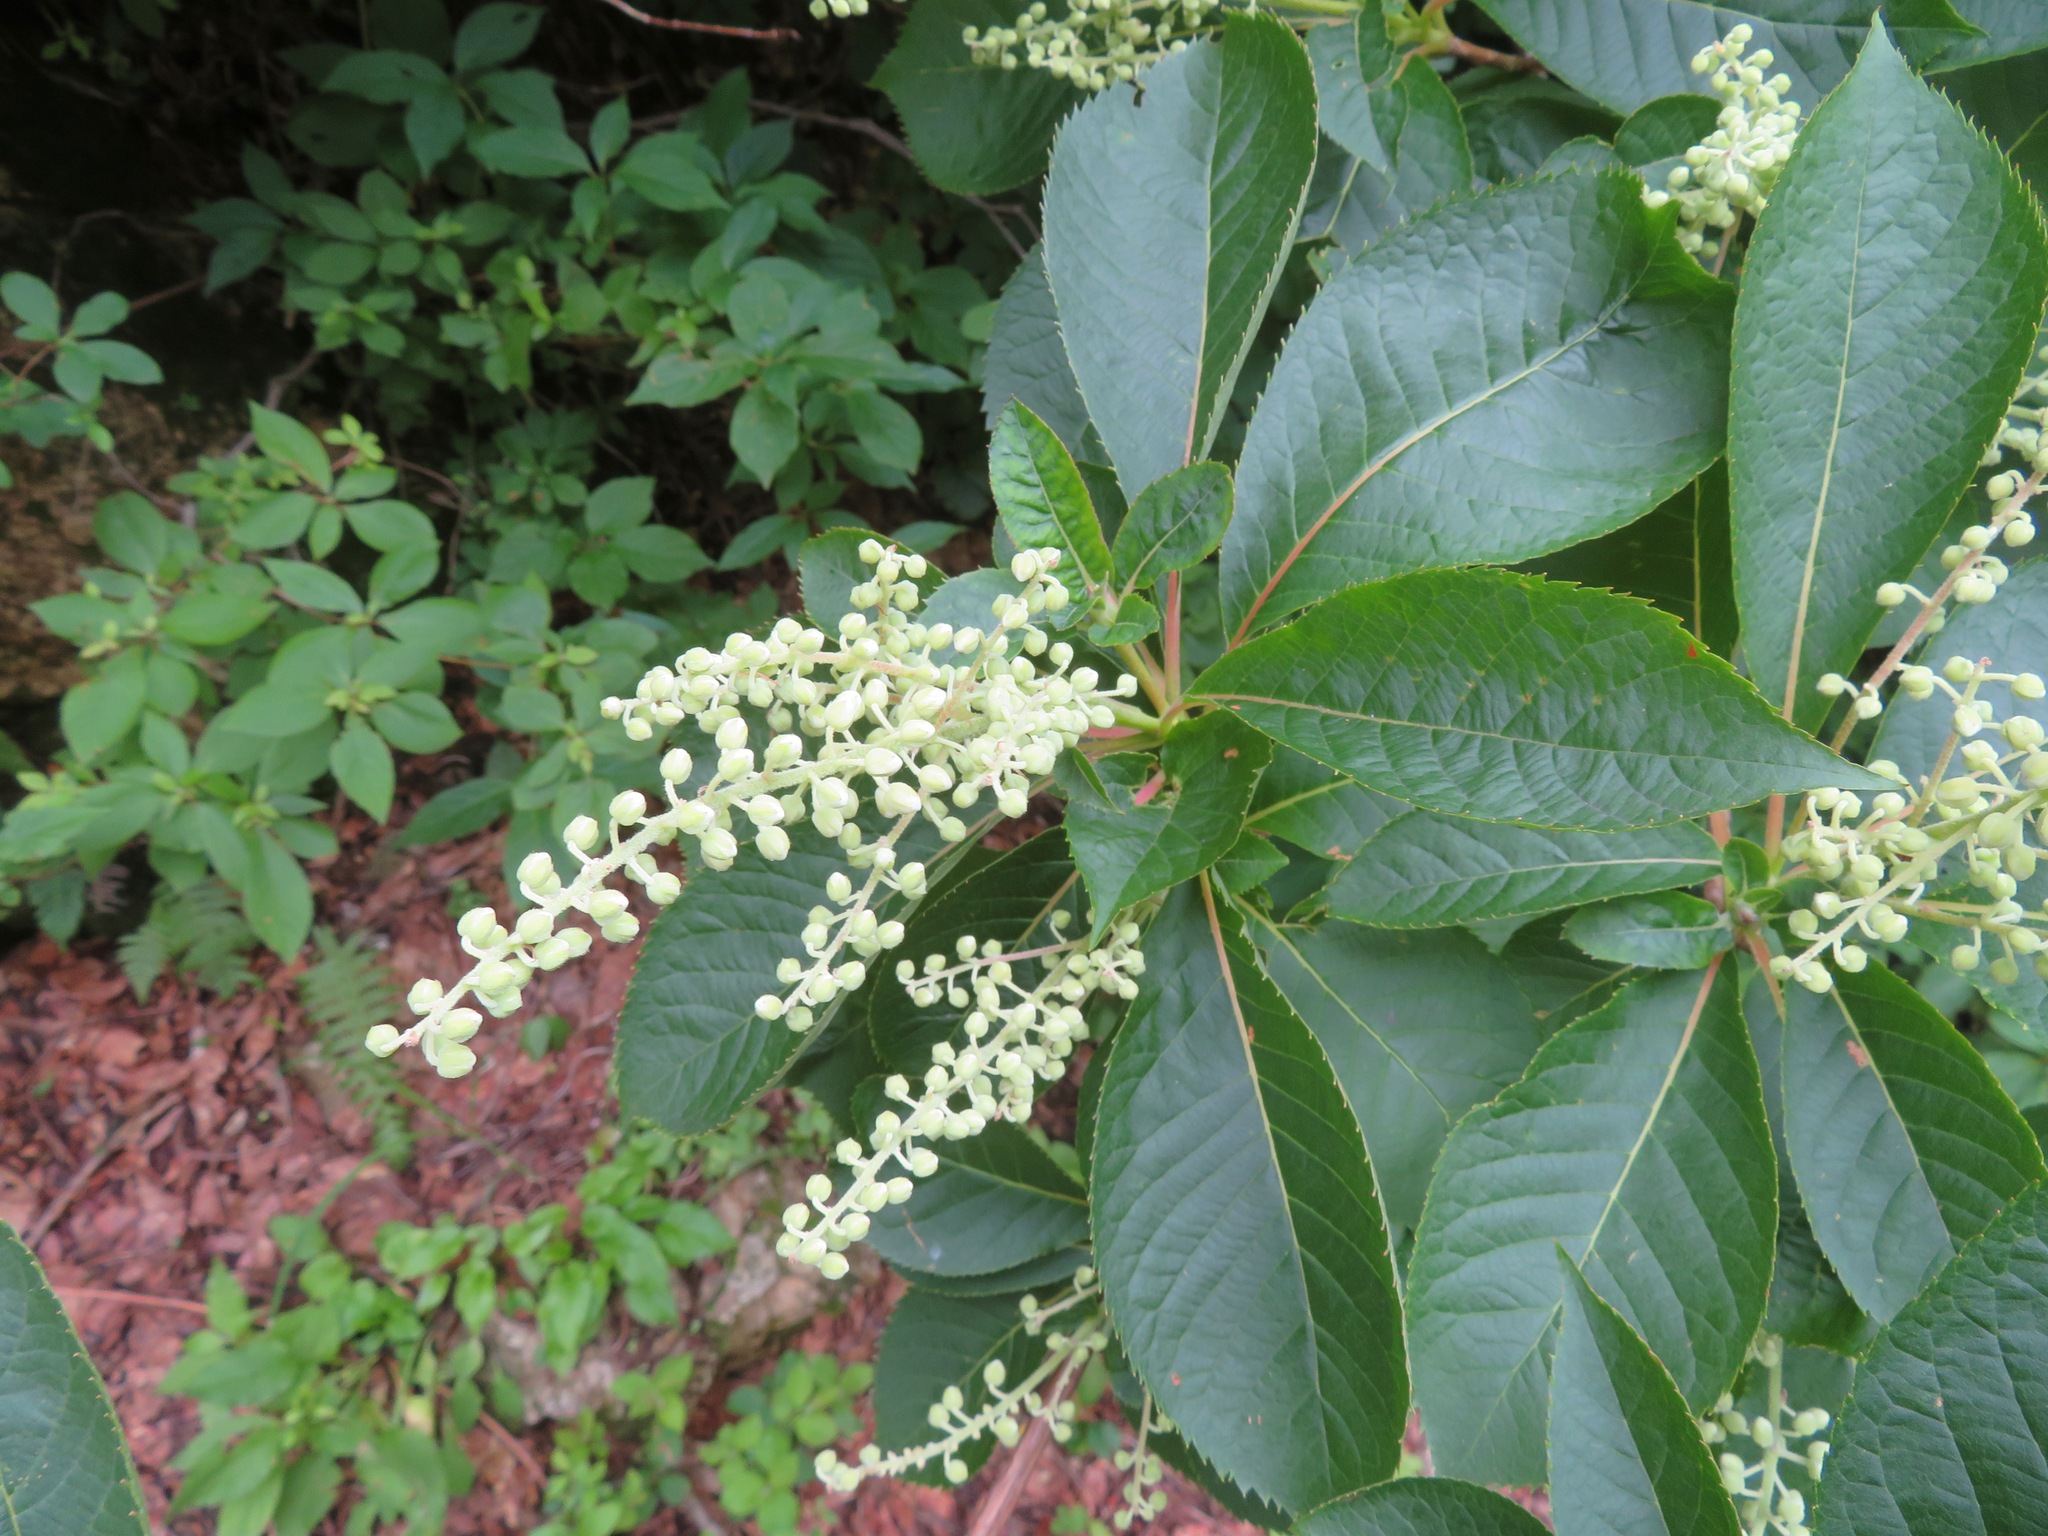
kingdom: Plantae
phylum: Tracheophyta
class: Magnoliopsida
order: Ericales
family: Clethraceae
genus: Clethra
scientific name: Clethra barbinervis
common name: Japanese clethra
